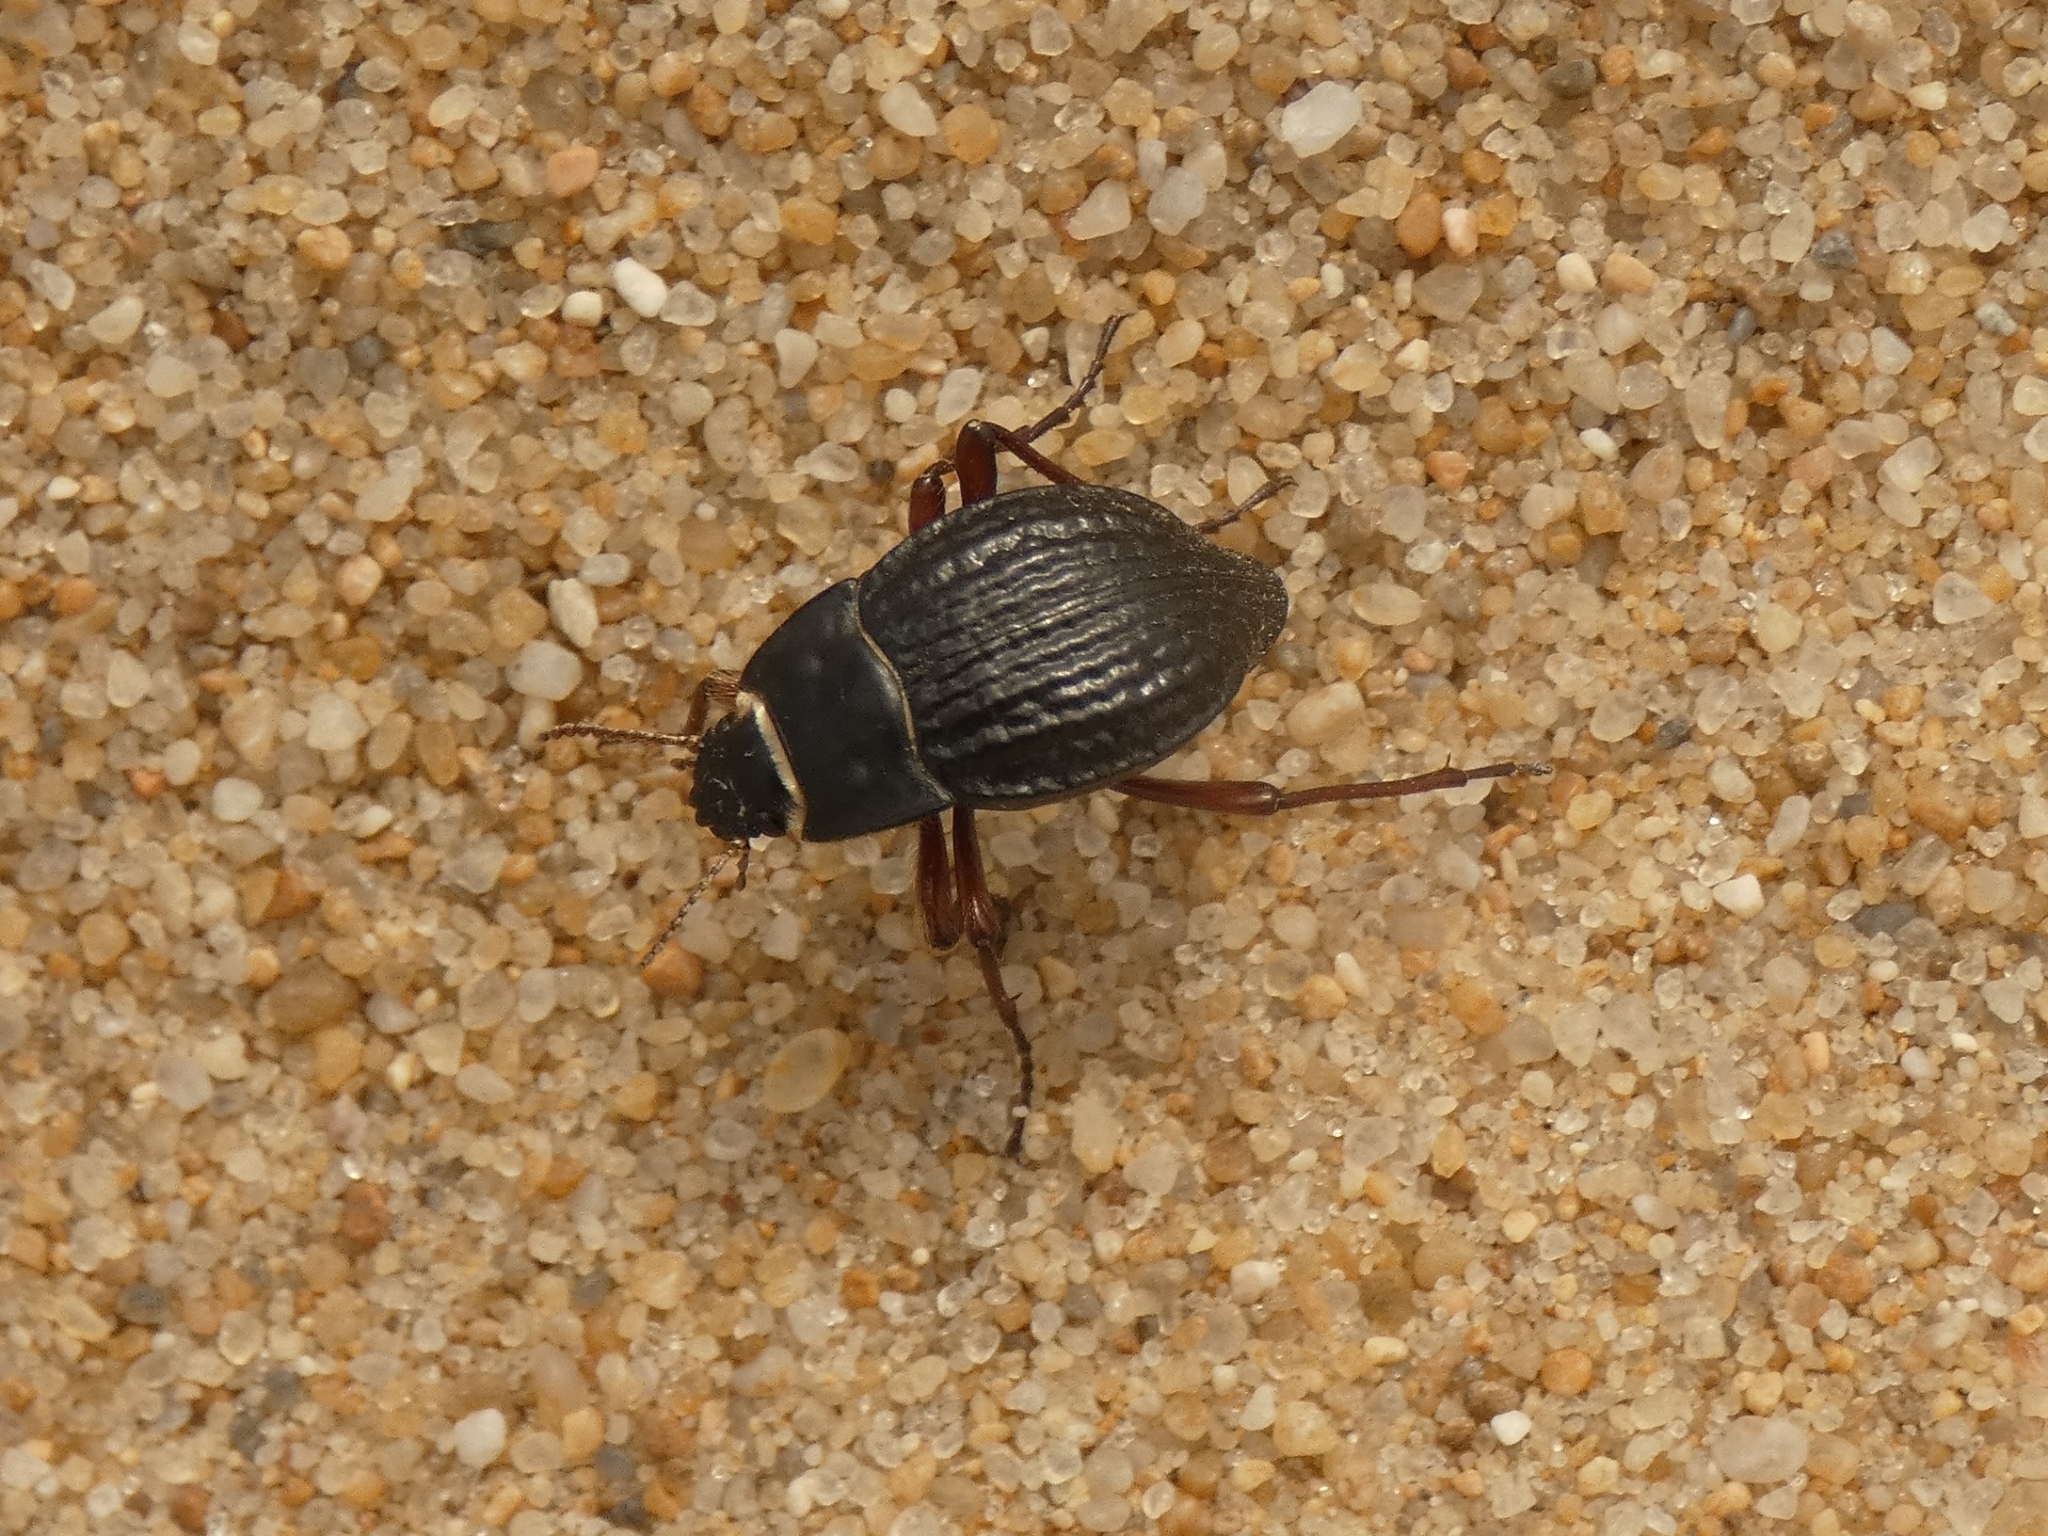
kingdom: Animalia
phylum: Arthropoda
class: Insecta
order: Coleoptera
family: Tenebrionidae
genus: Nyctelia
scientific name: Nyctelia Zophosis picipes
